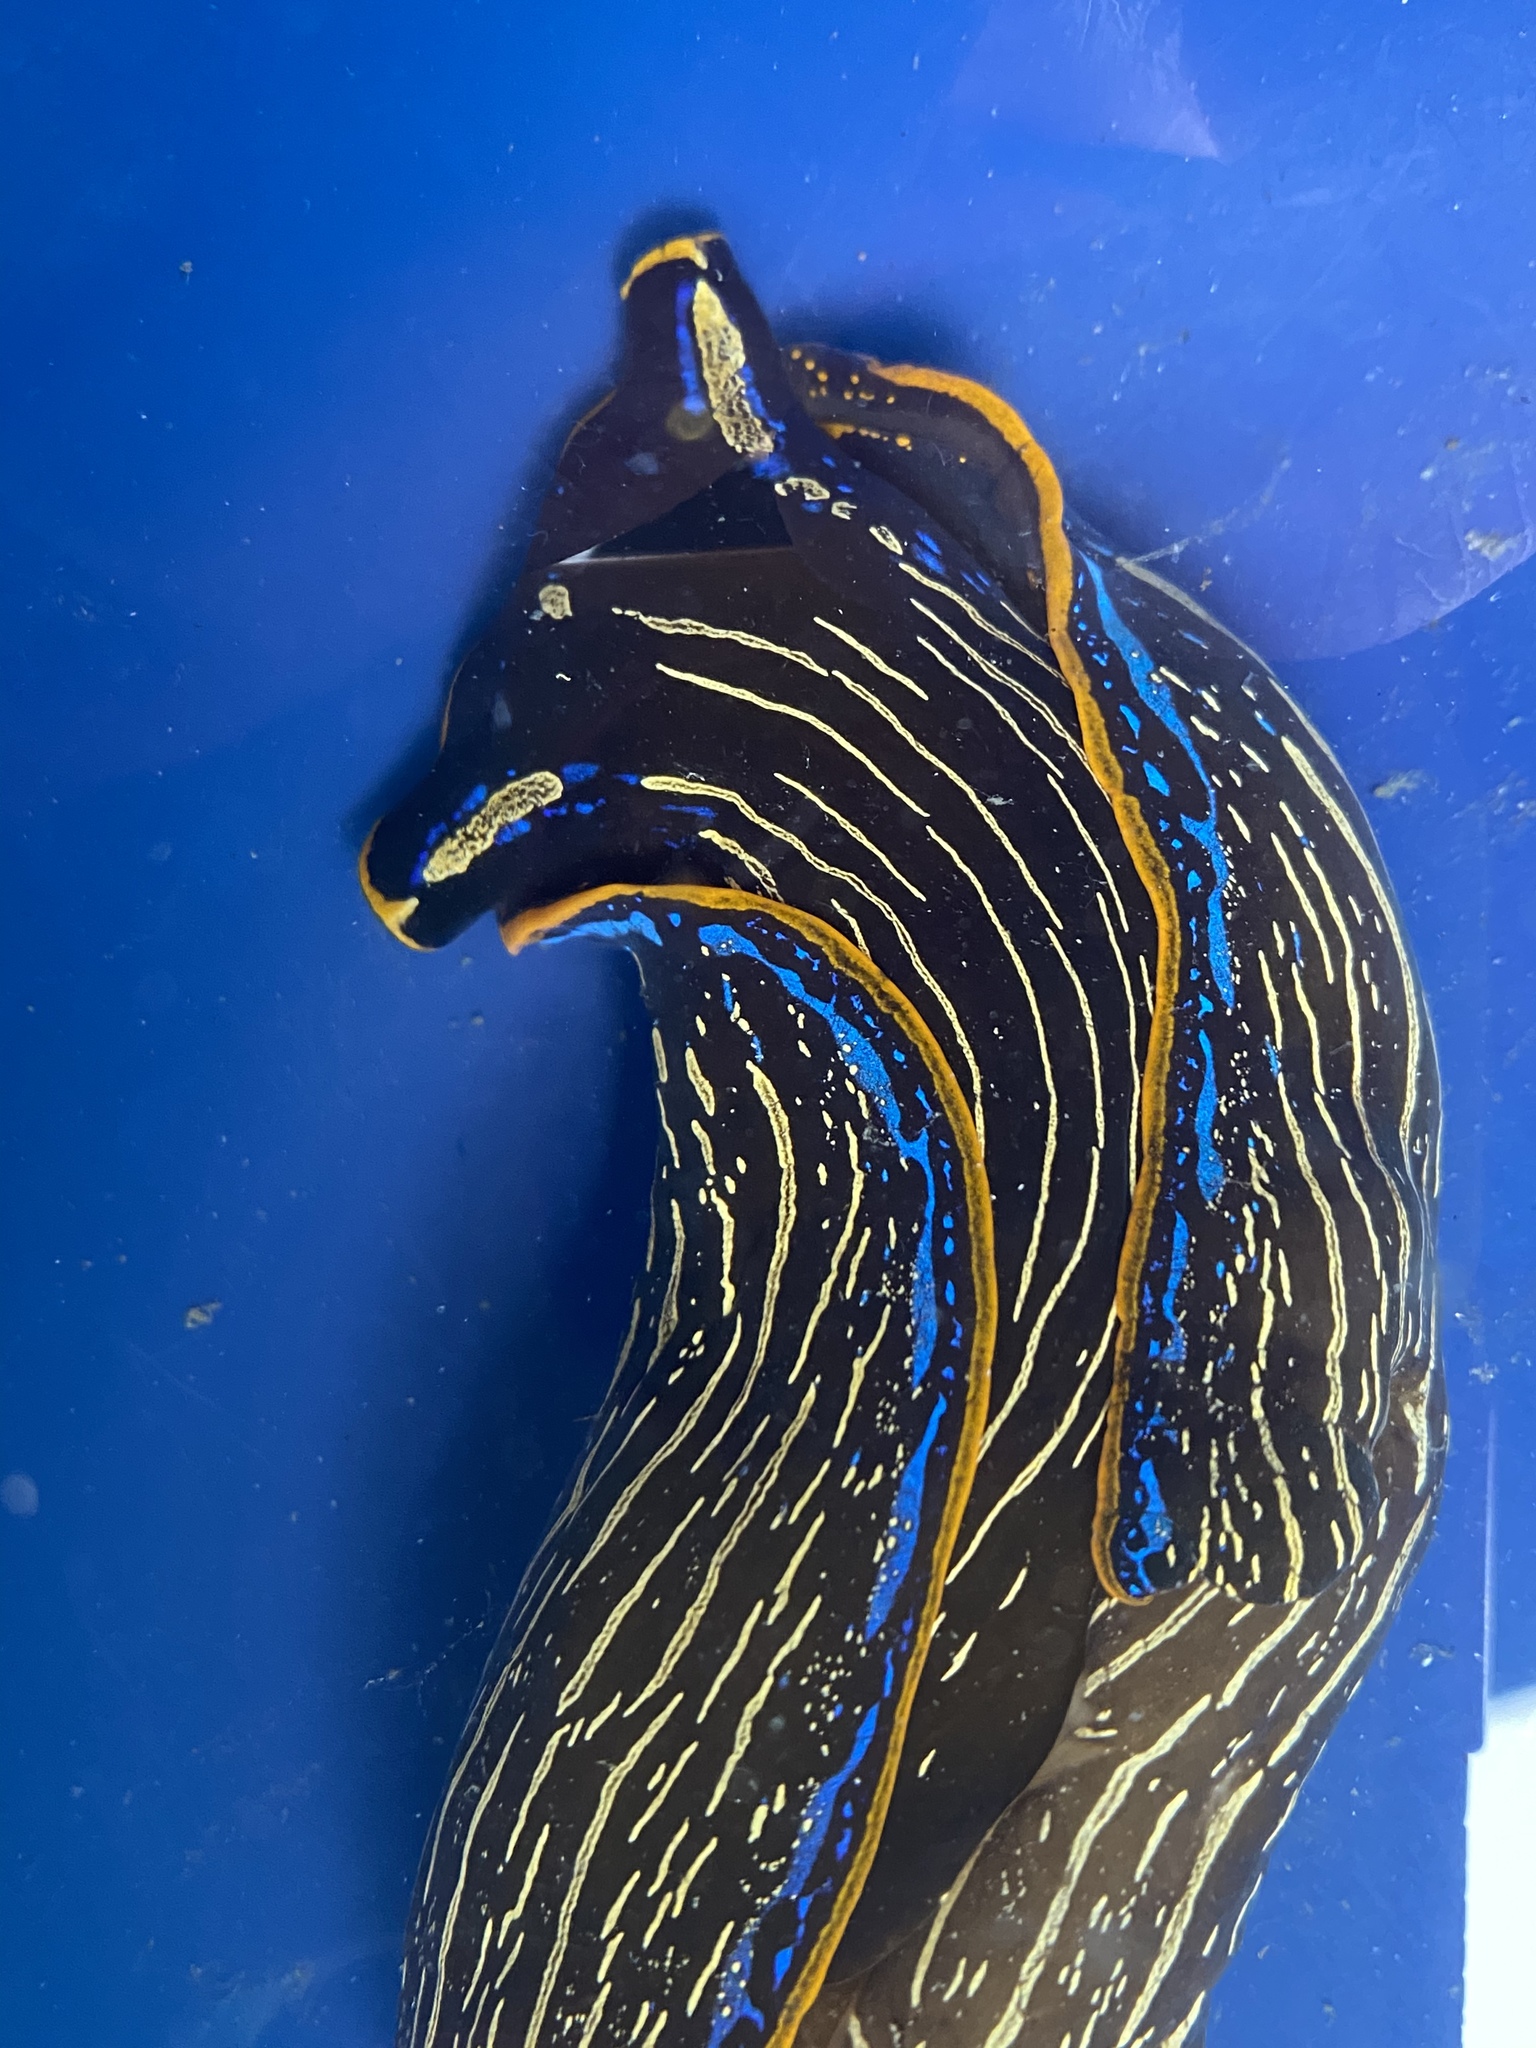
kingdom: Animalia
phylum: Mollusca
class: Gastropoda
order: Cephalaspidea
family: Aglajidae
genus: Navanax
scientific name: Navanax inermis
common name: California aglaja
